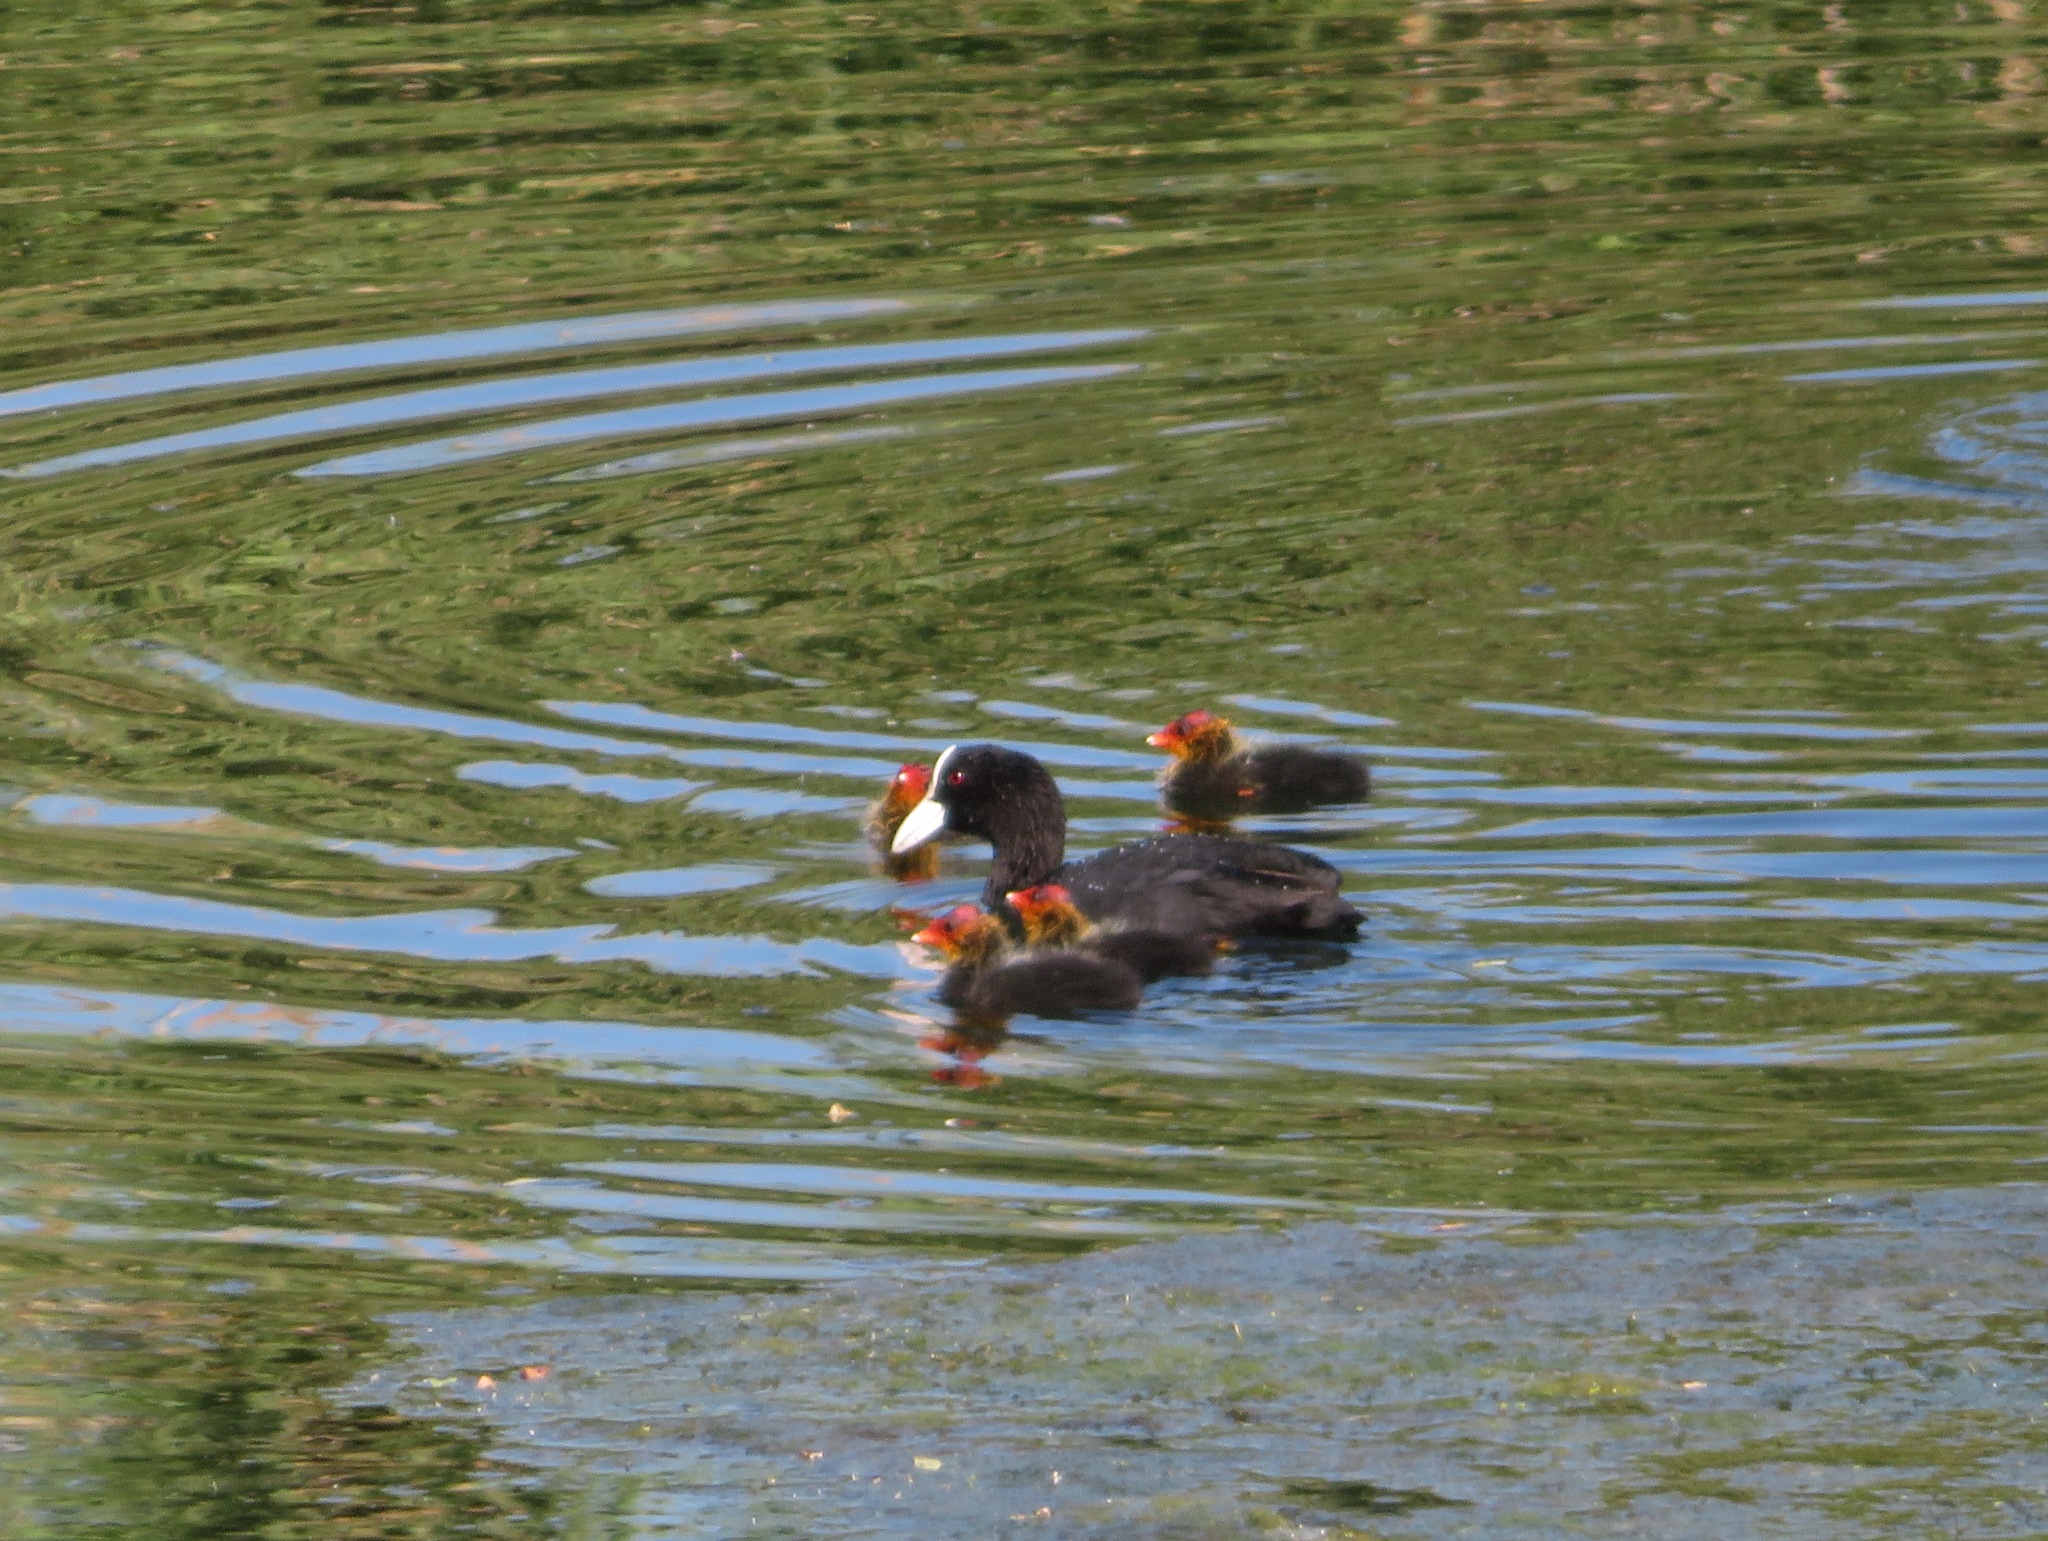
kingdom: Animalia
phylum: Chordata
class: Aves
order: Gruiformes
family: Rallidae
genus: Fulica
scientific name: Fulica atra
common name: Eurasian coot
